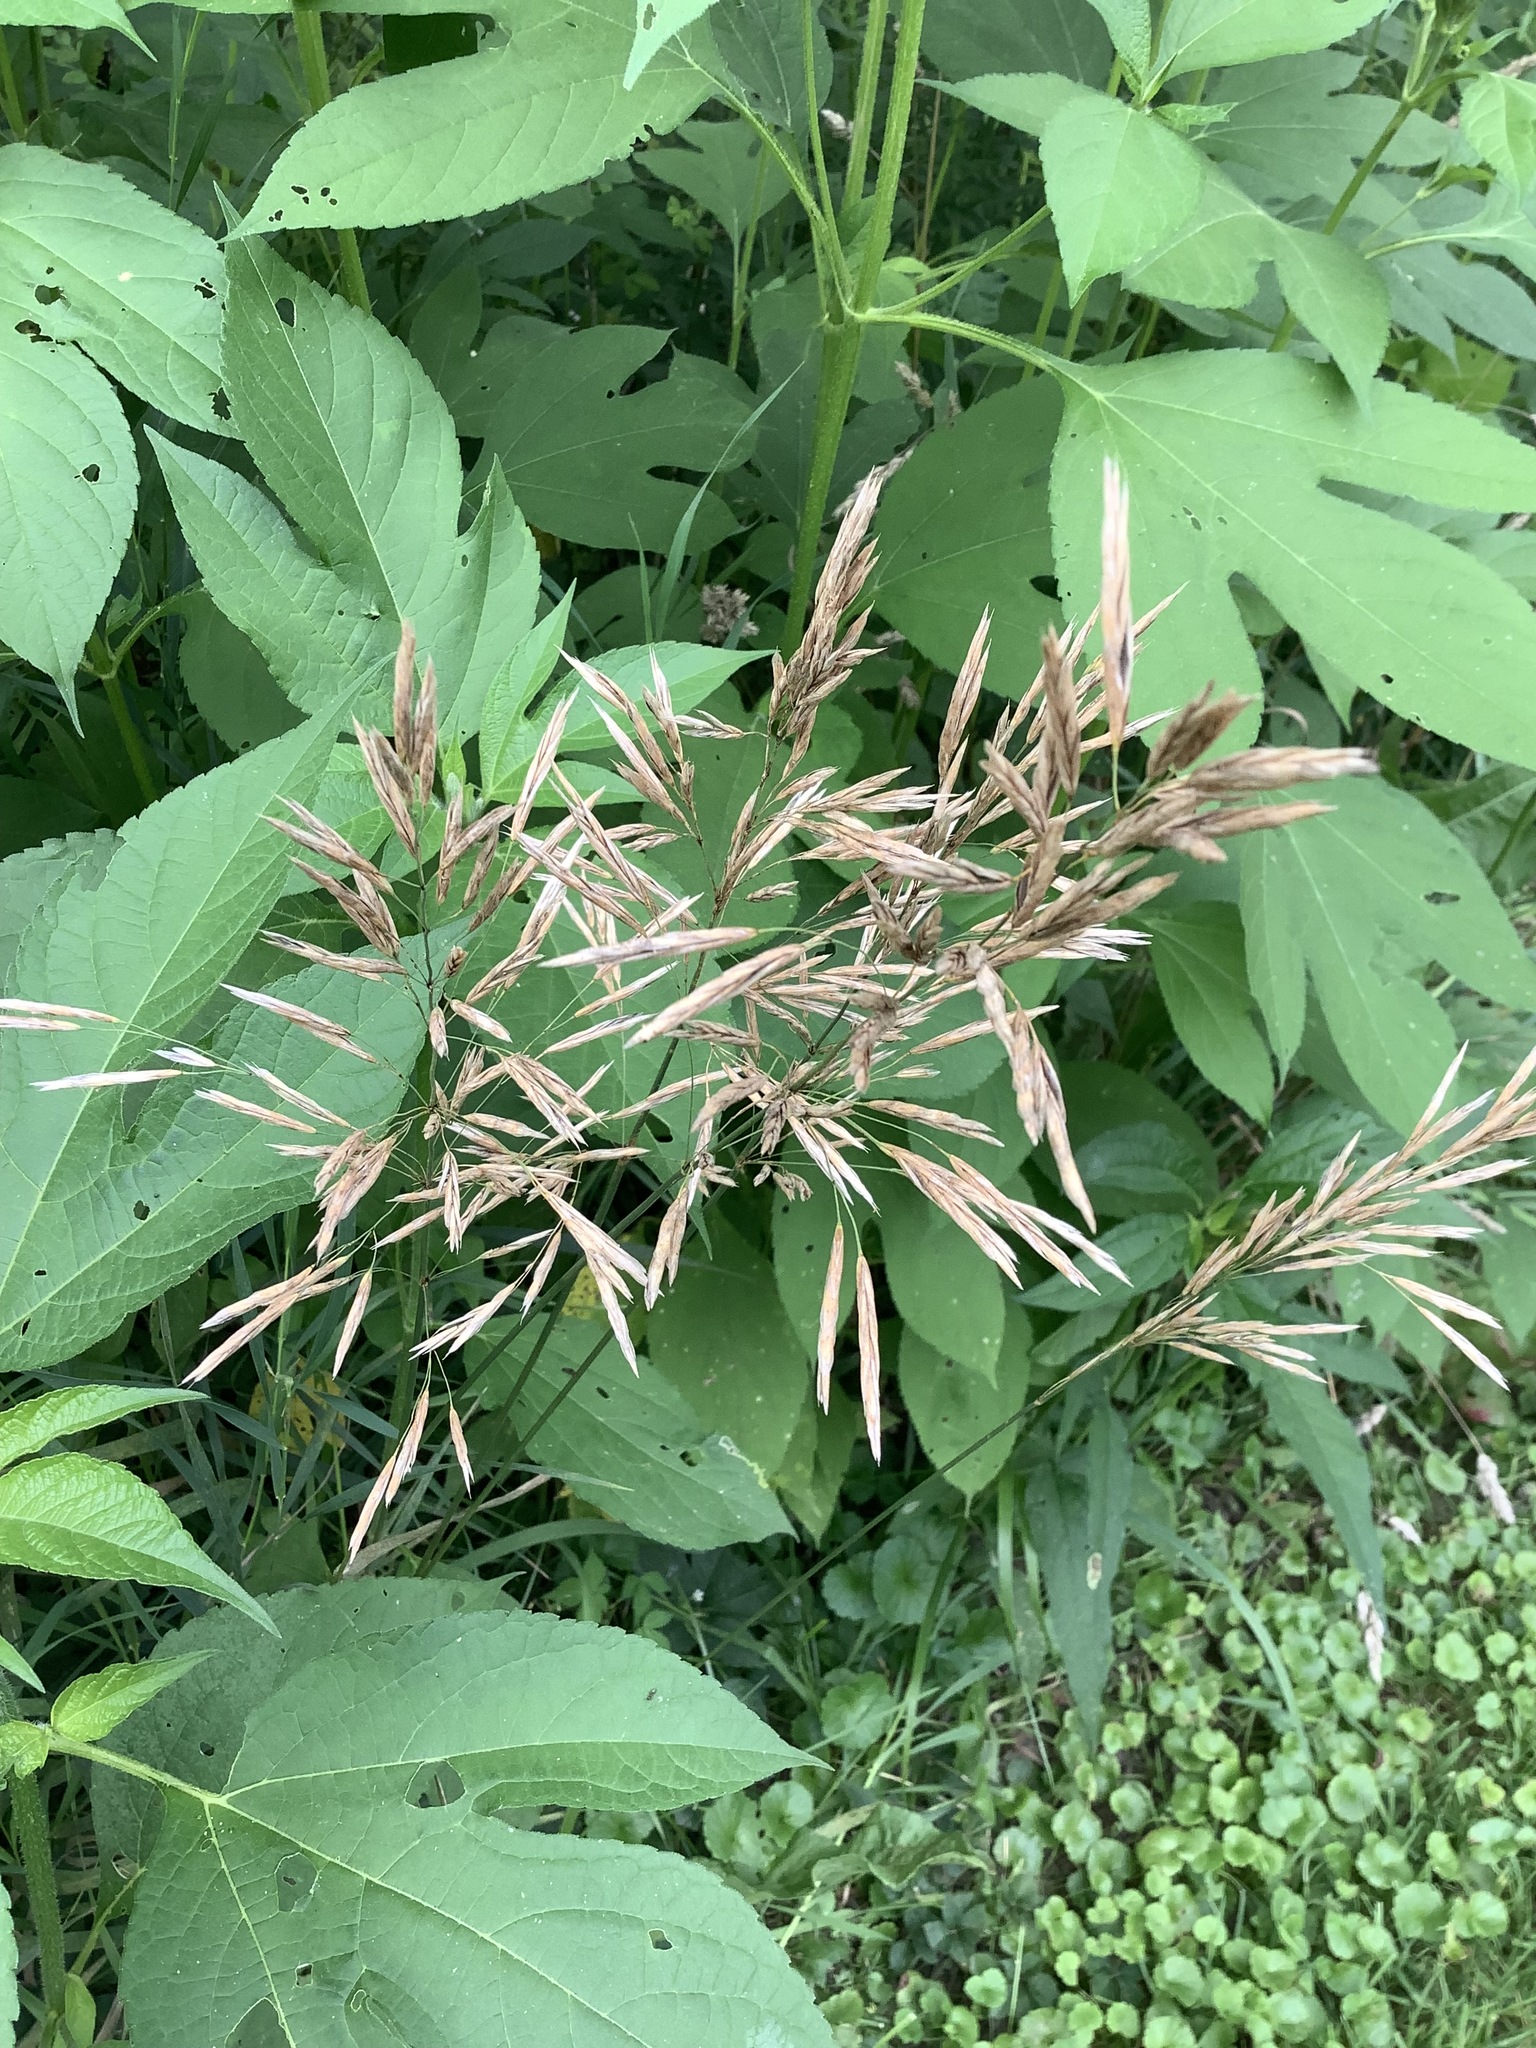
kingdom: Plantae
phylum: Tracheophyta
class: Liliopsida
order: Poales
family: Poaceae
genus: Bromus
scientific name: Bromus inermis
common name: Smooth brome
